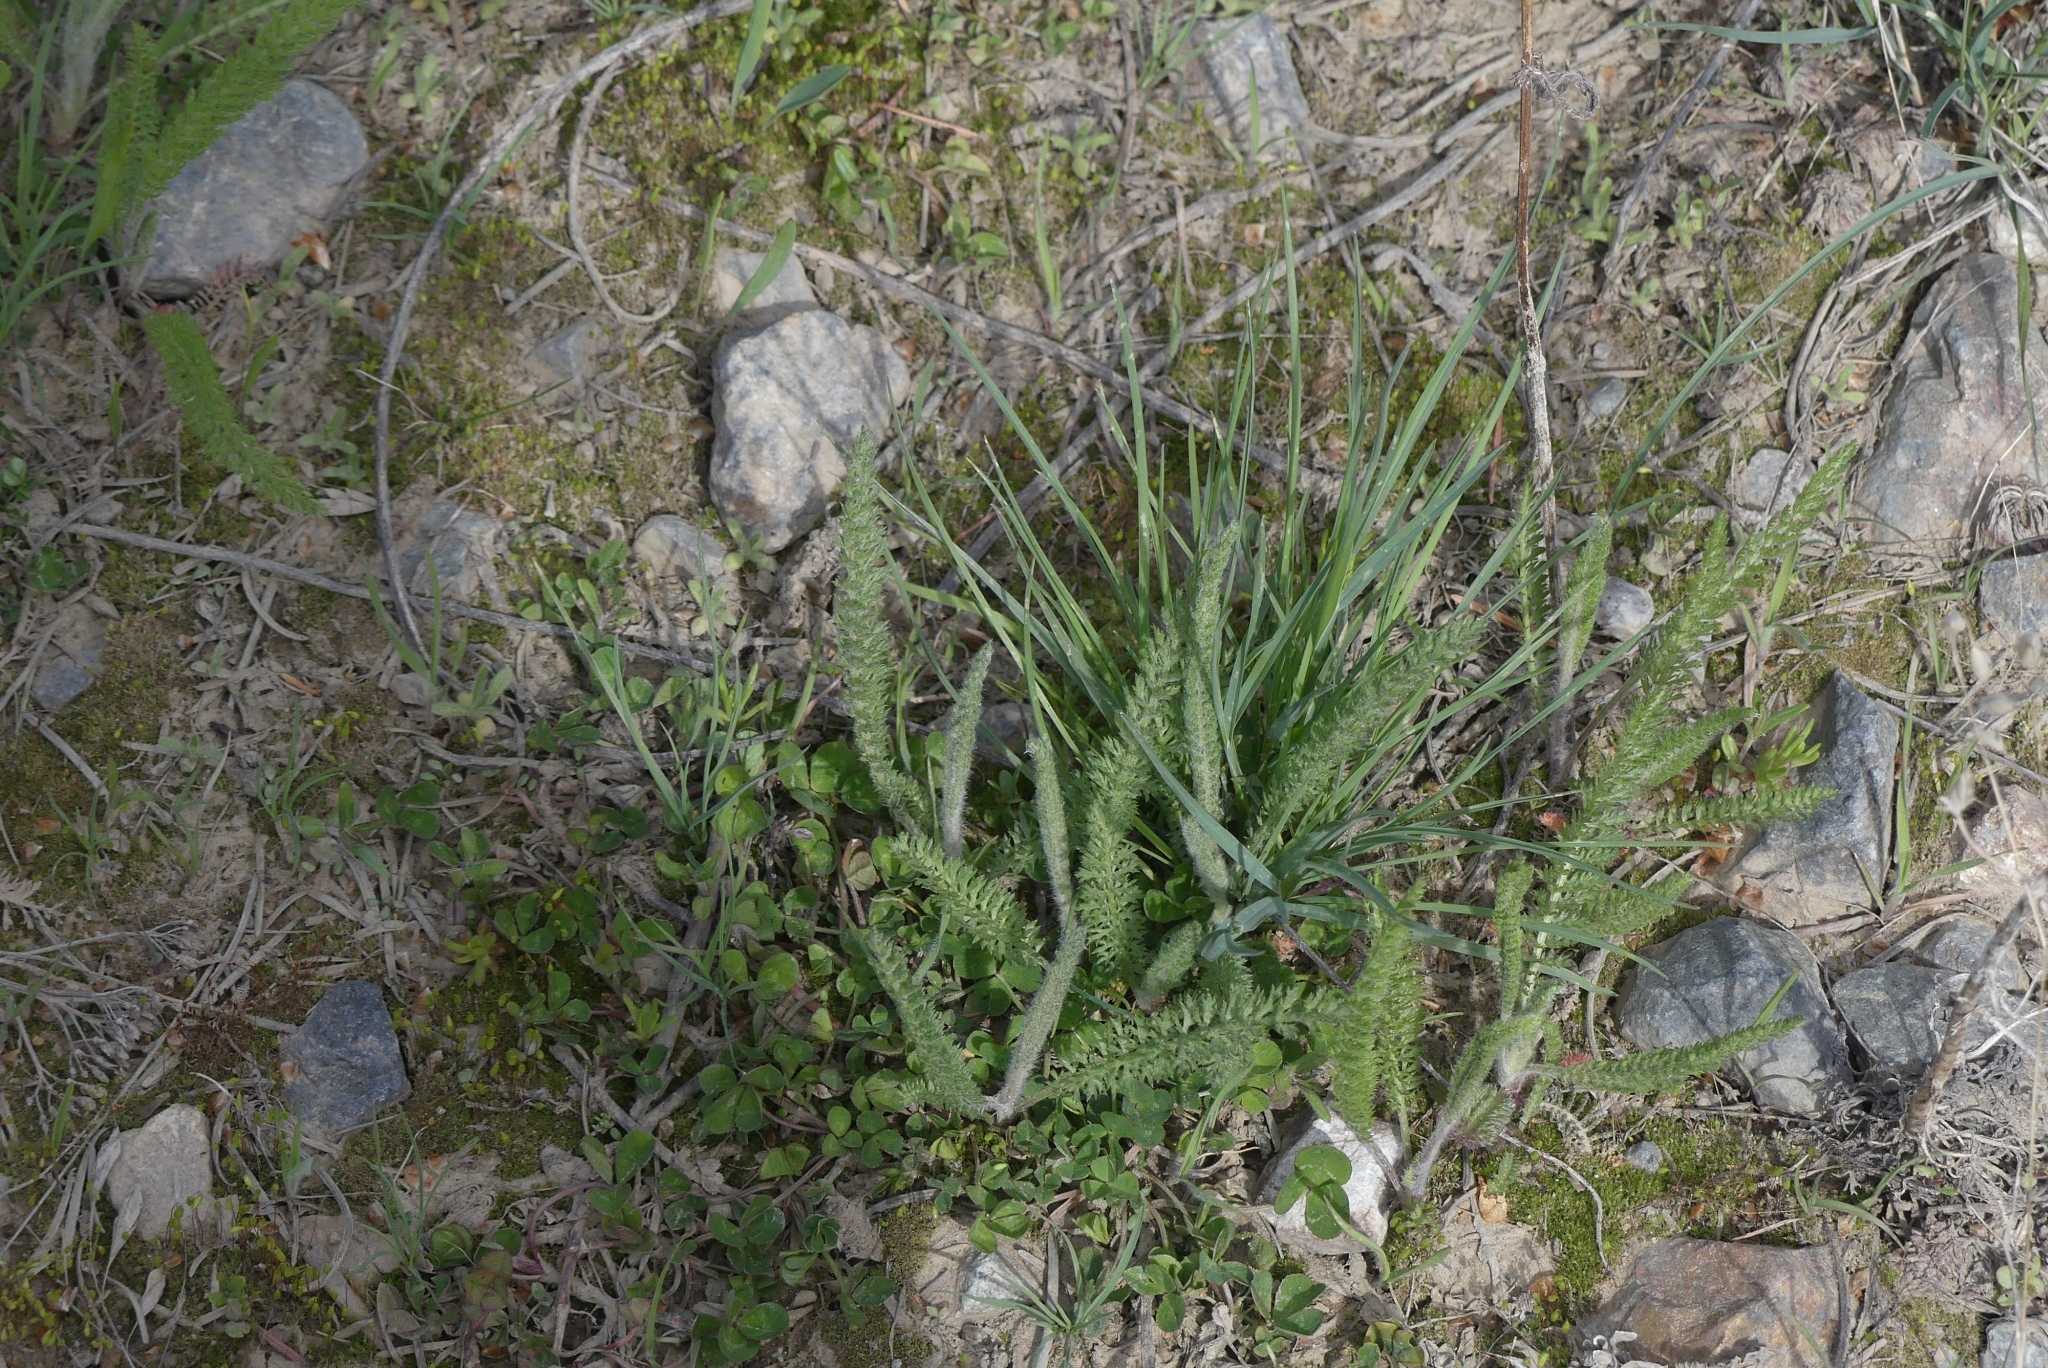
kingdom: Plantae
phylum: Tracheophyta
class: Magnoliopsida
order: Asterales
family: Asteraceae
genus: Achillea
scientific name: Achillea millefolium
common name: Yarrow
